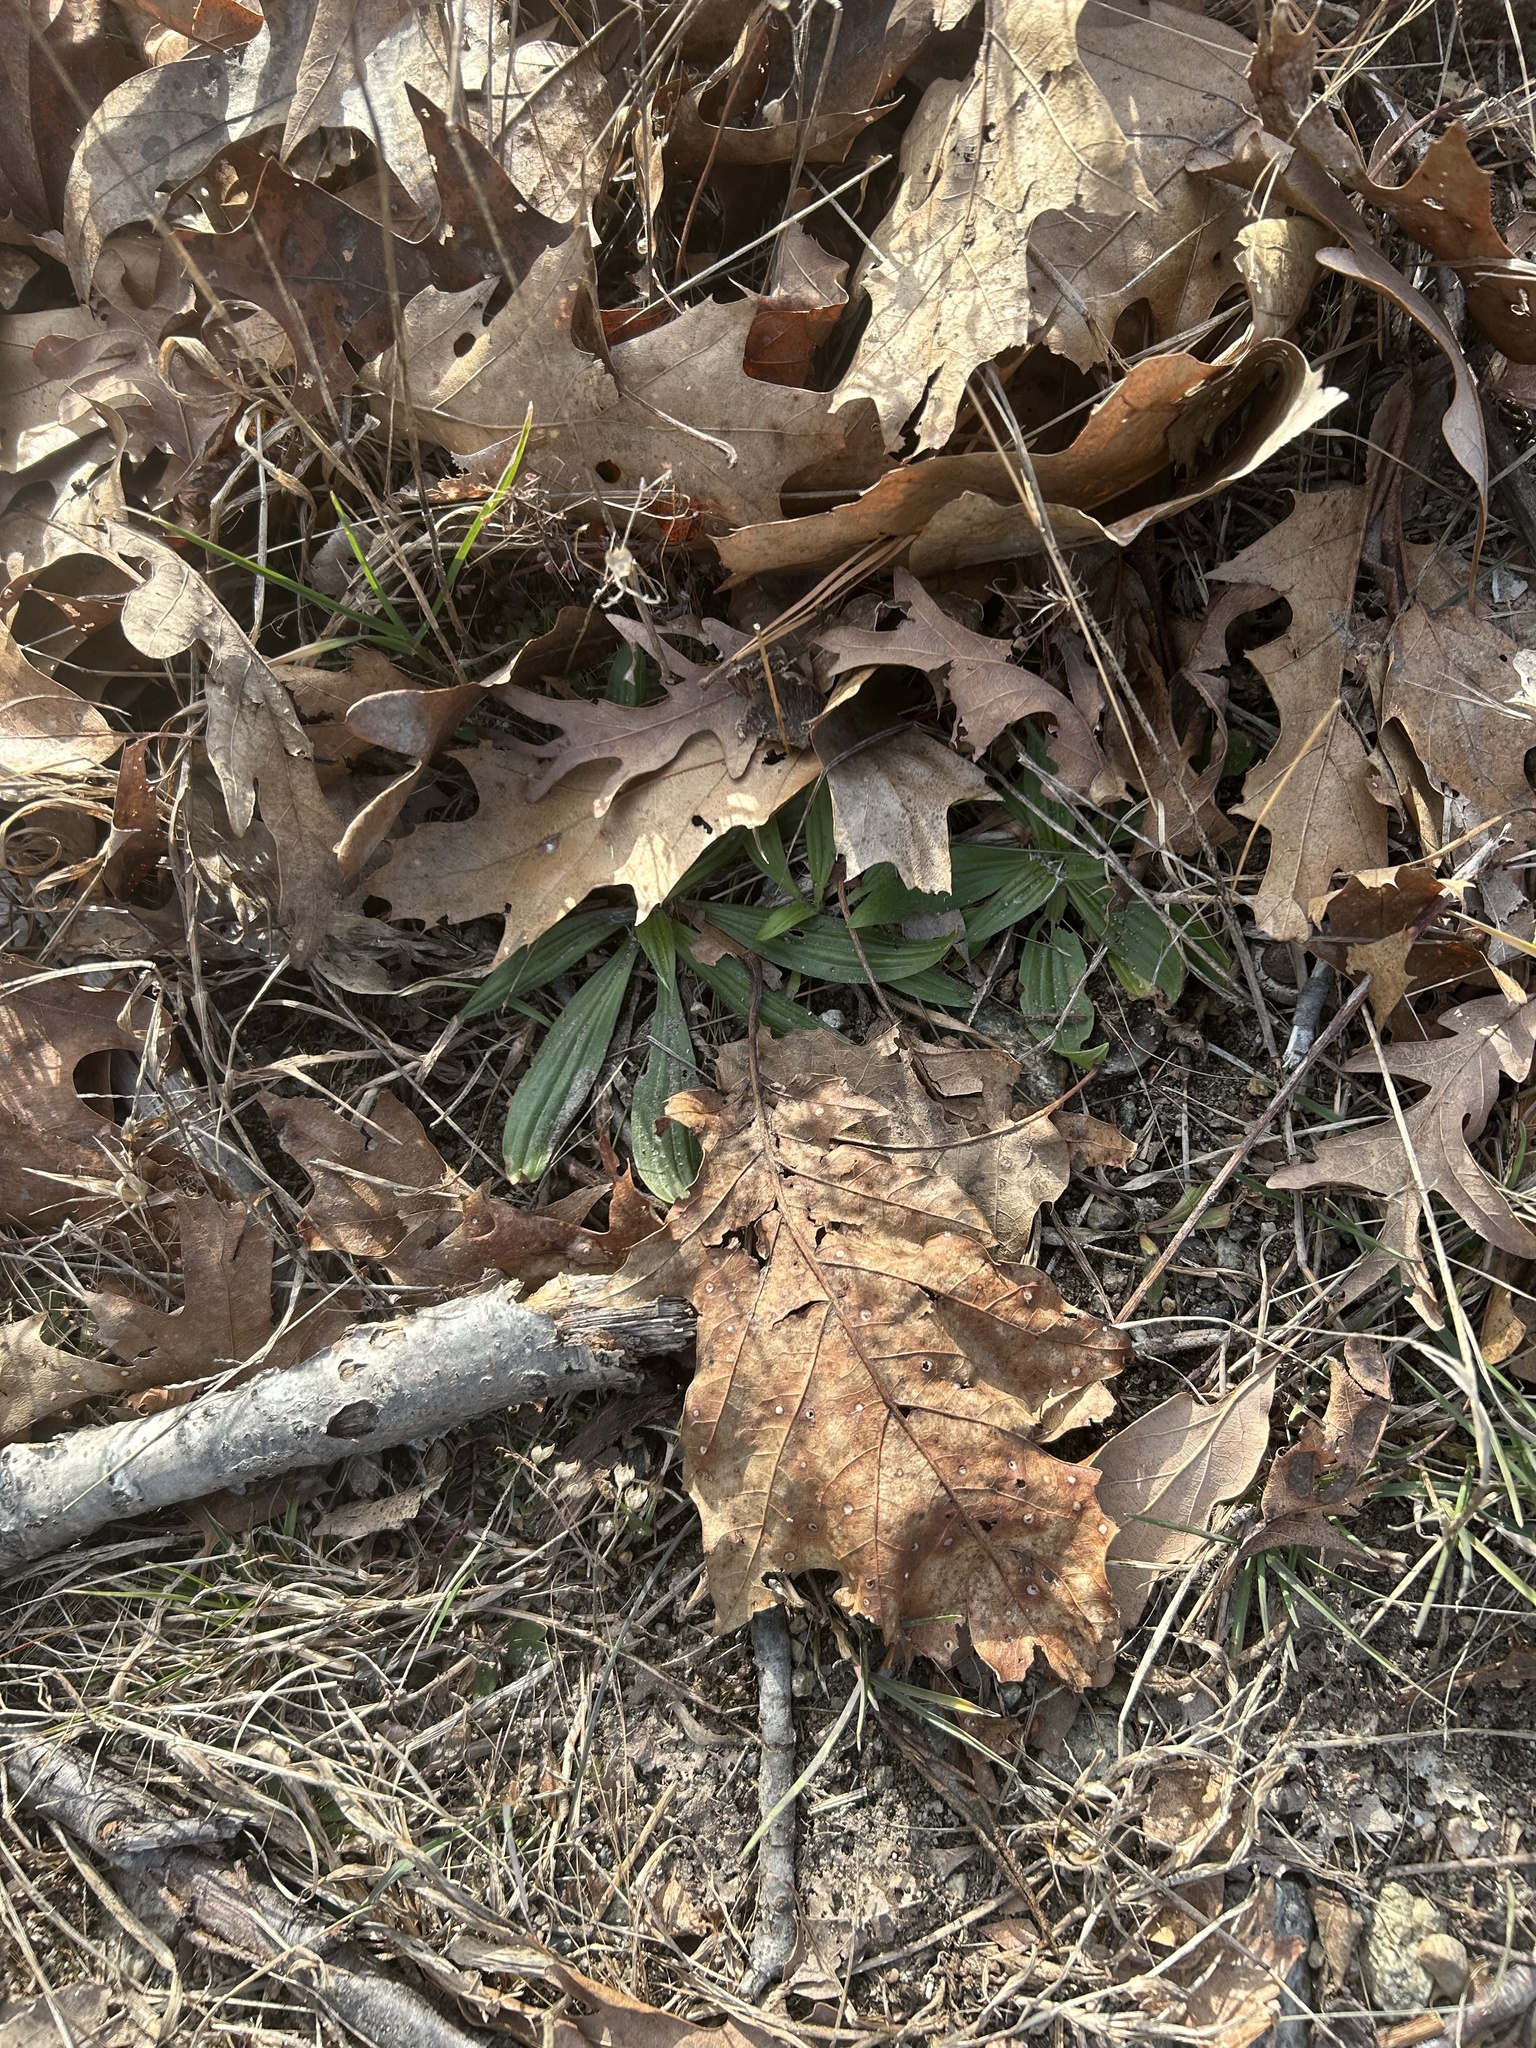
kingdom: Plantae
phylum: Tracheophyta
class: Magnoliopsida
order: Lamiales
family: Plantaginaceae
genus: Plantago
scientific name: Plantago lanceolata
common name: Ribwort plantain
